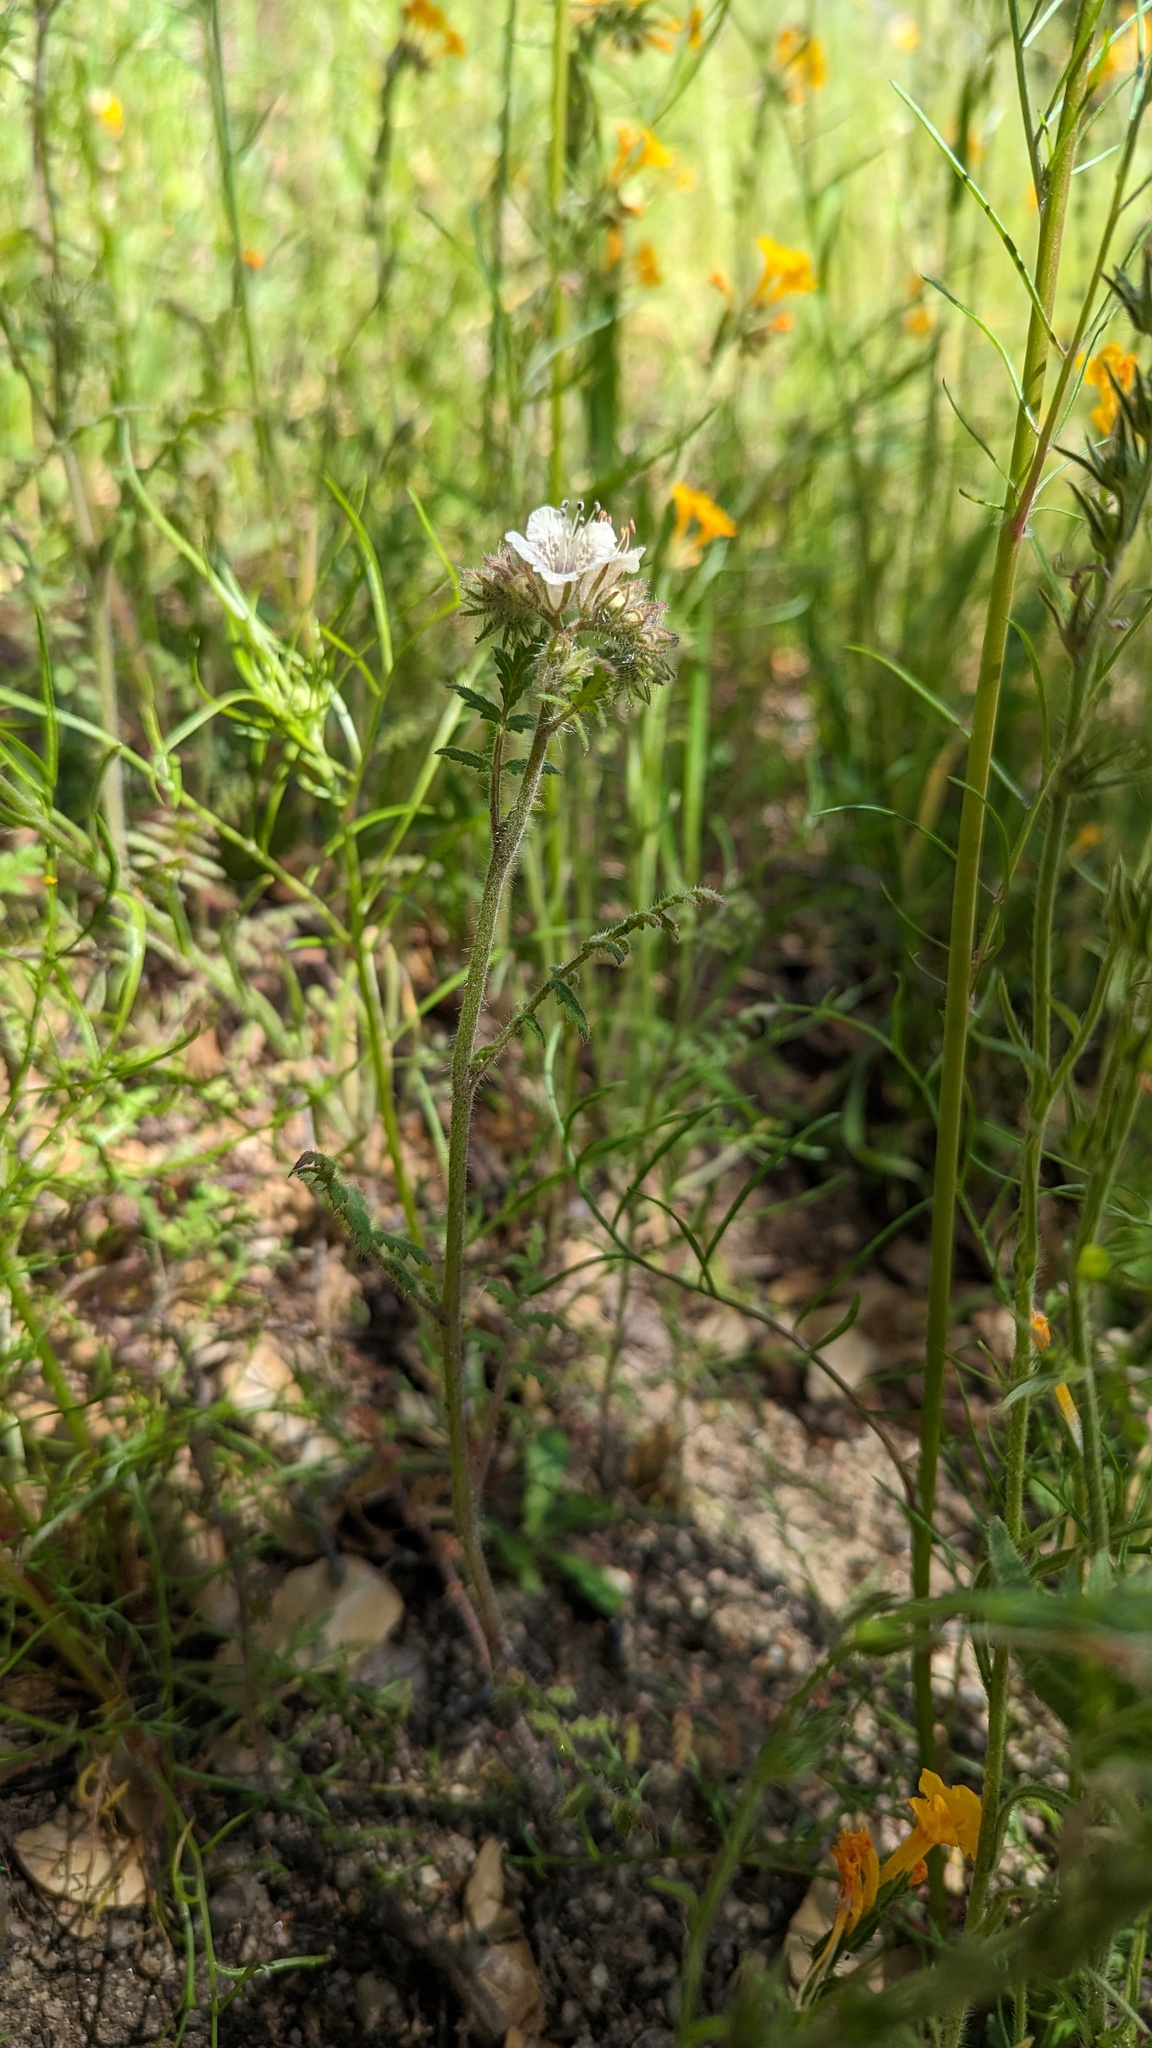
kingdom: Plantae
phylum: Tracheophyta
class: Magnoliopsida
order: Boraginales
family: Hydrophyllaceae
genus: Phacelia
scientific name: Phacelia cicutaria
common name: Caterpillar phacelia
